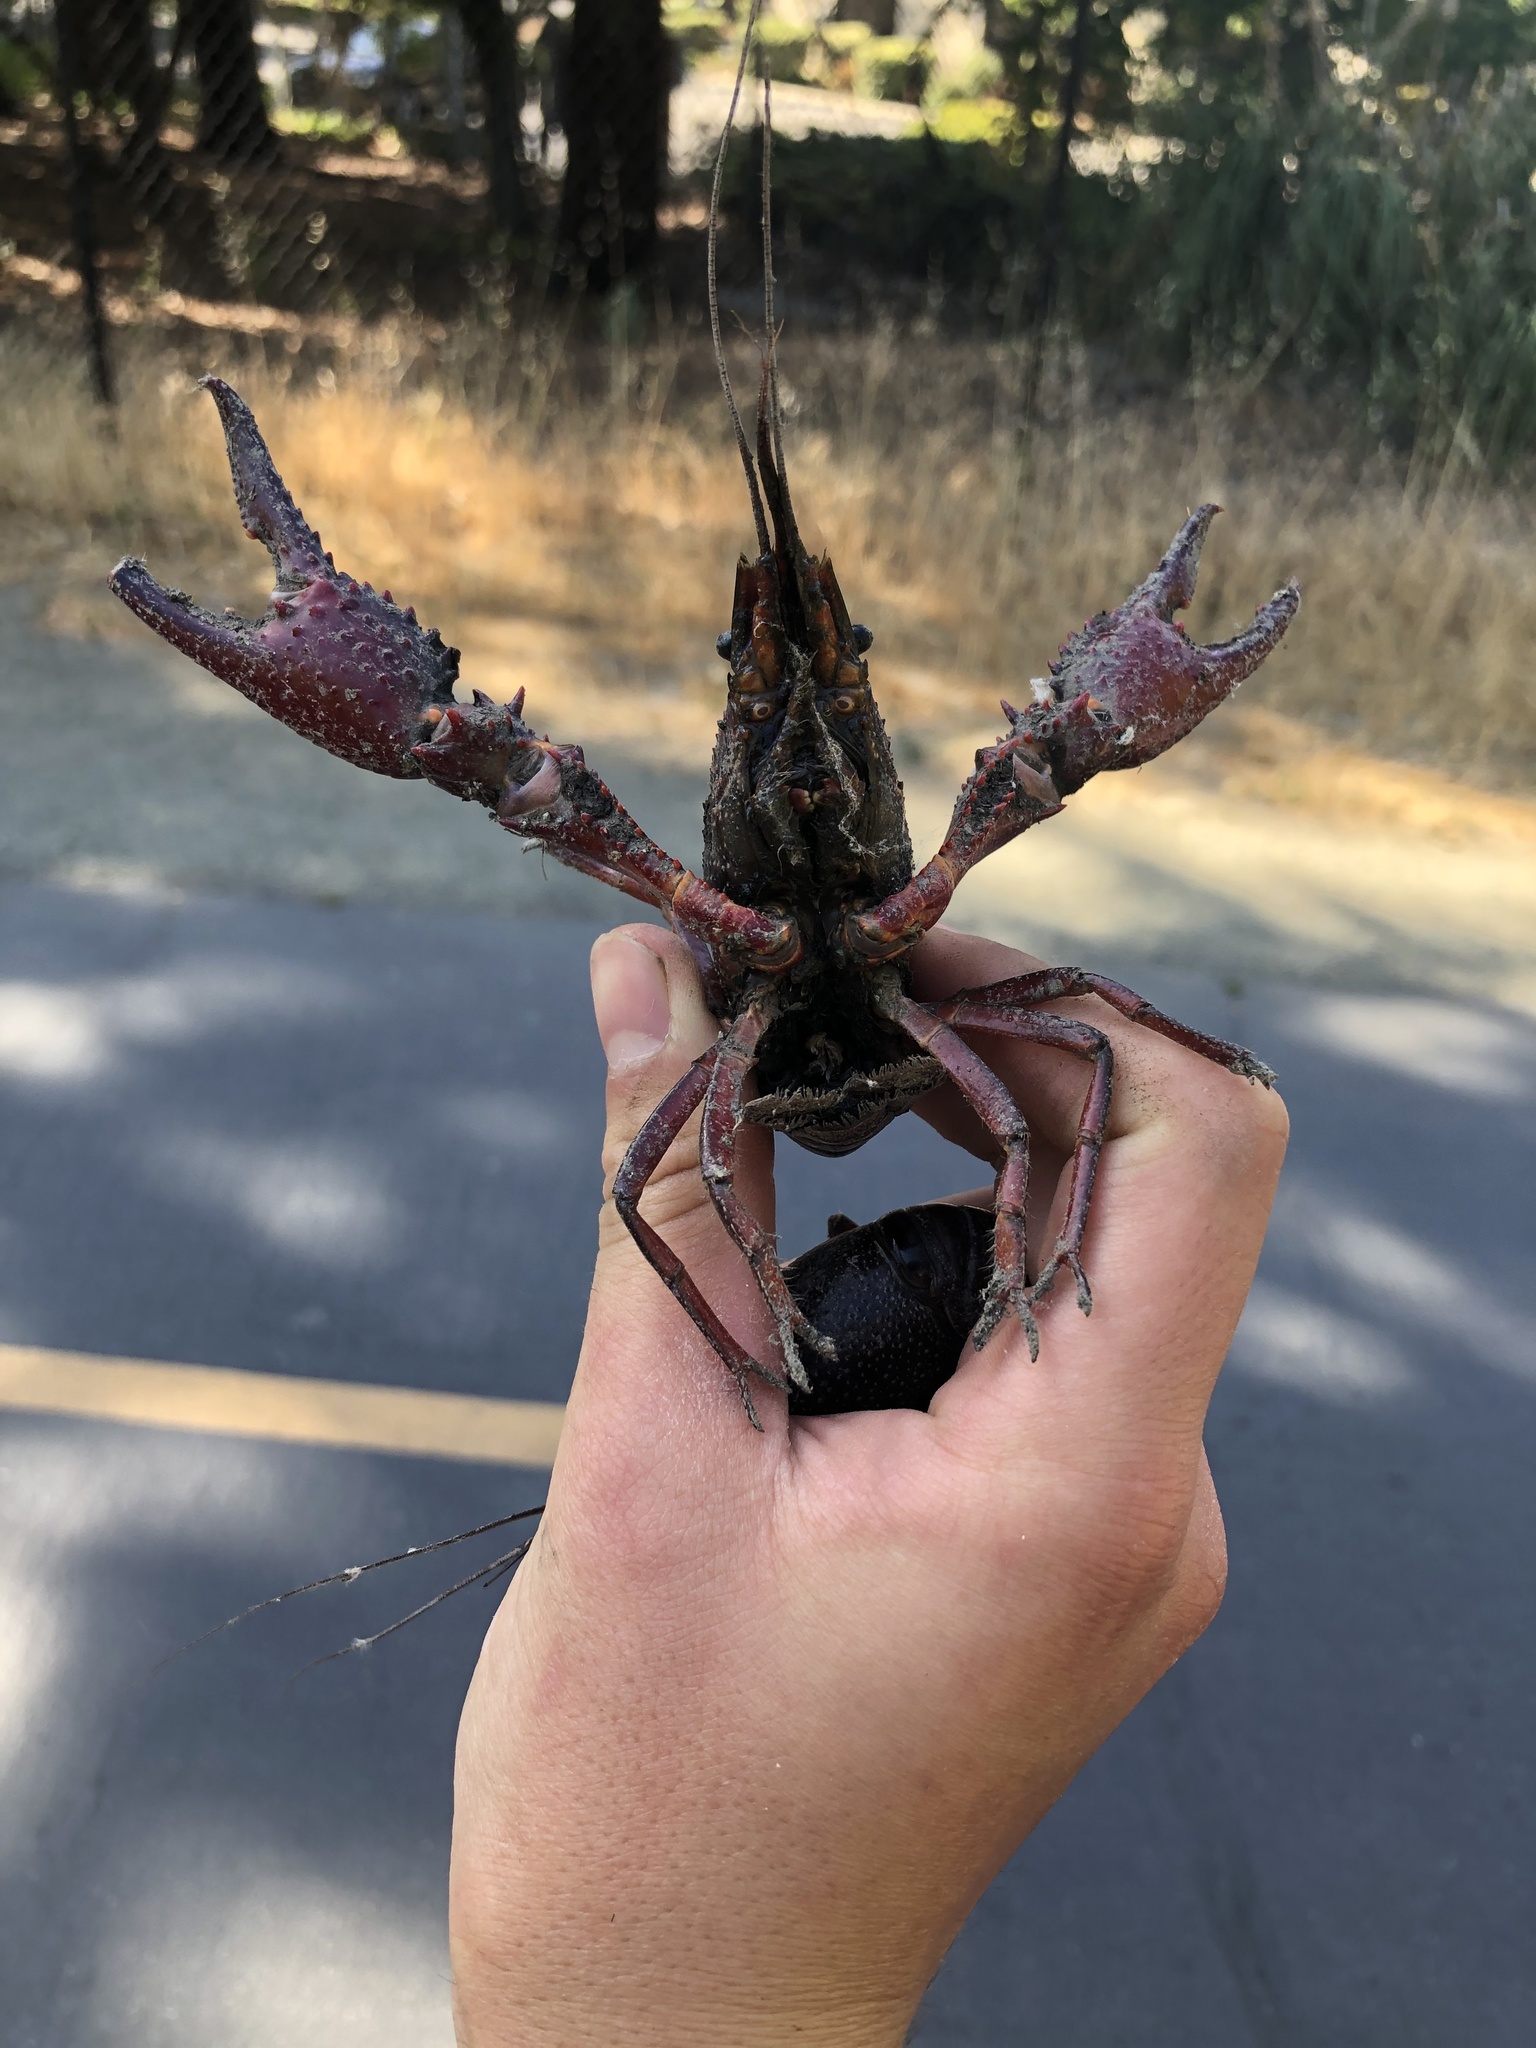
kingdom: Animalia
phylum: Arthropoda
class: Malacostraca
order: Decapoda
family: Cambaridae
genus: Procambarus
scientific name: Procambarus clarkii
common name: Red swamp crayfish
